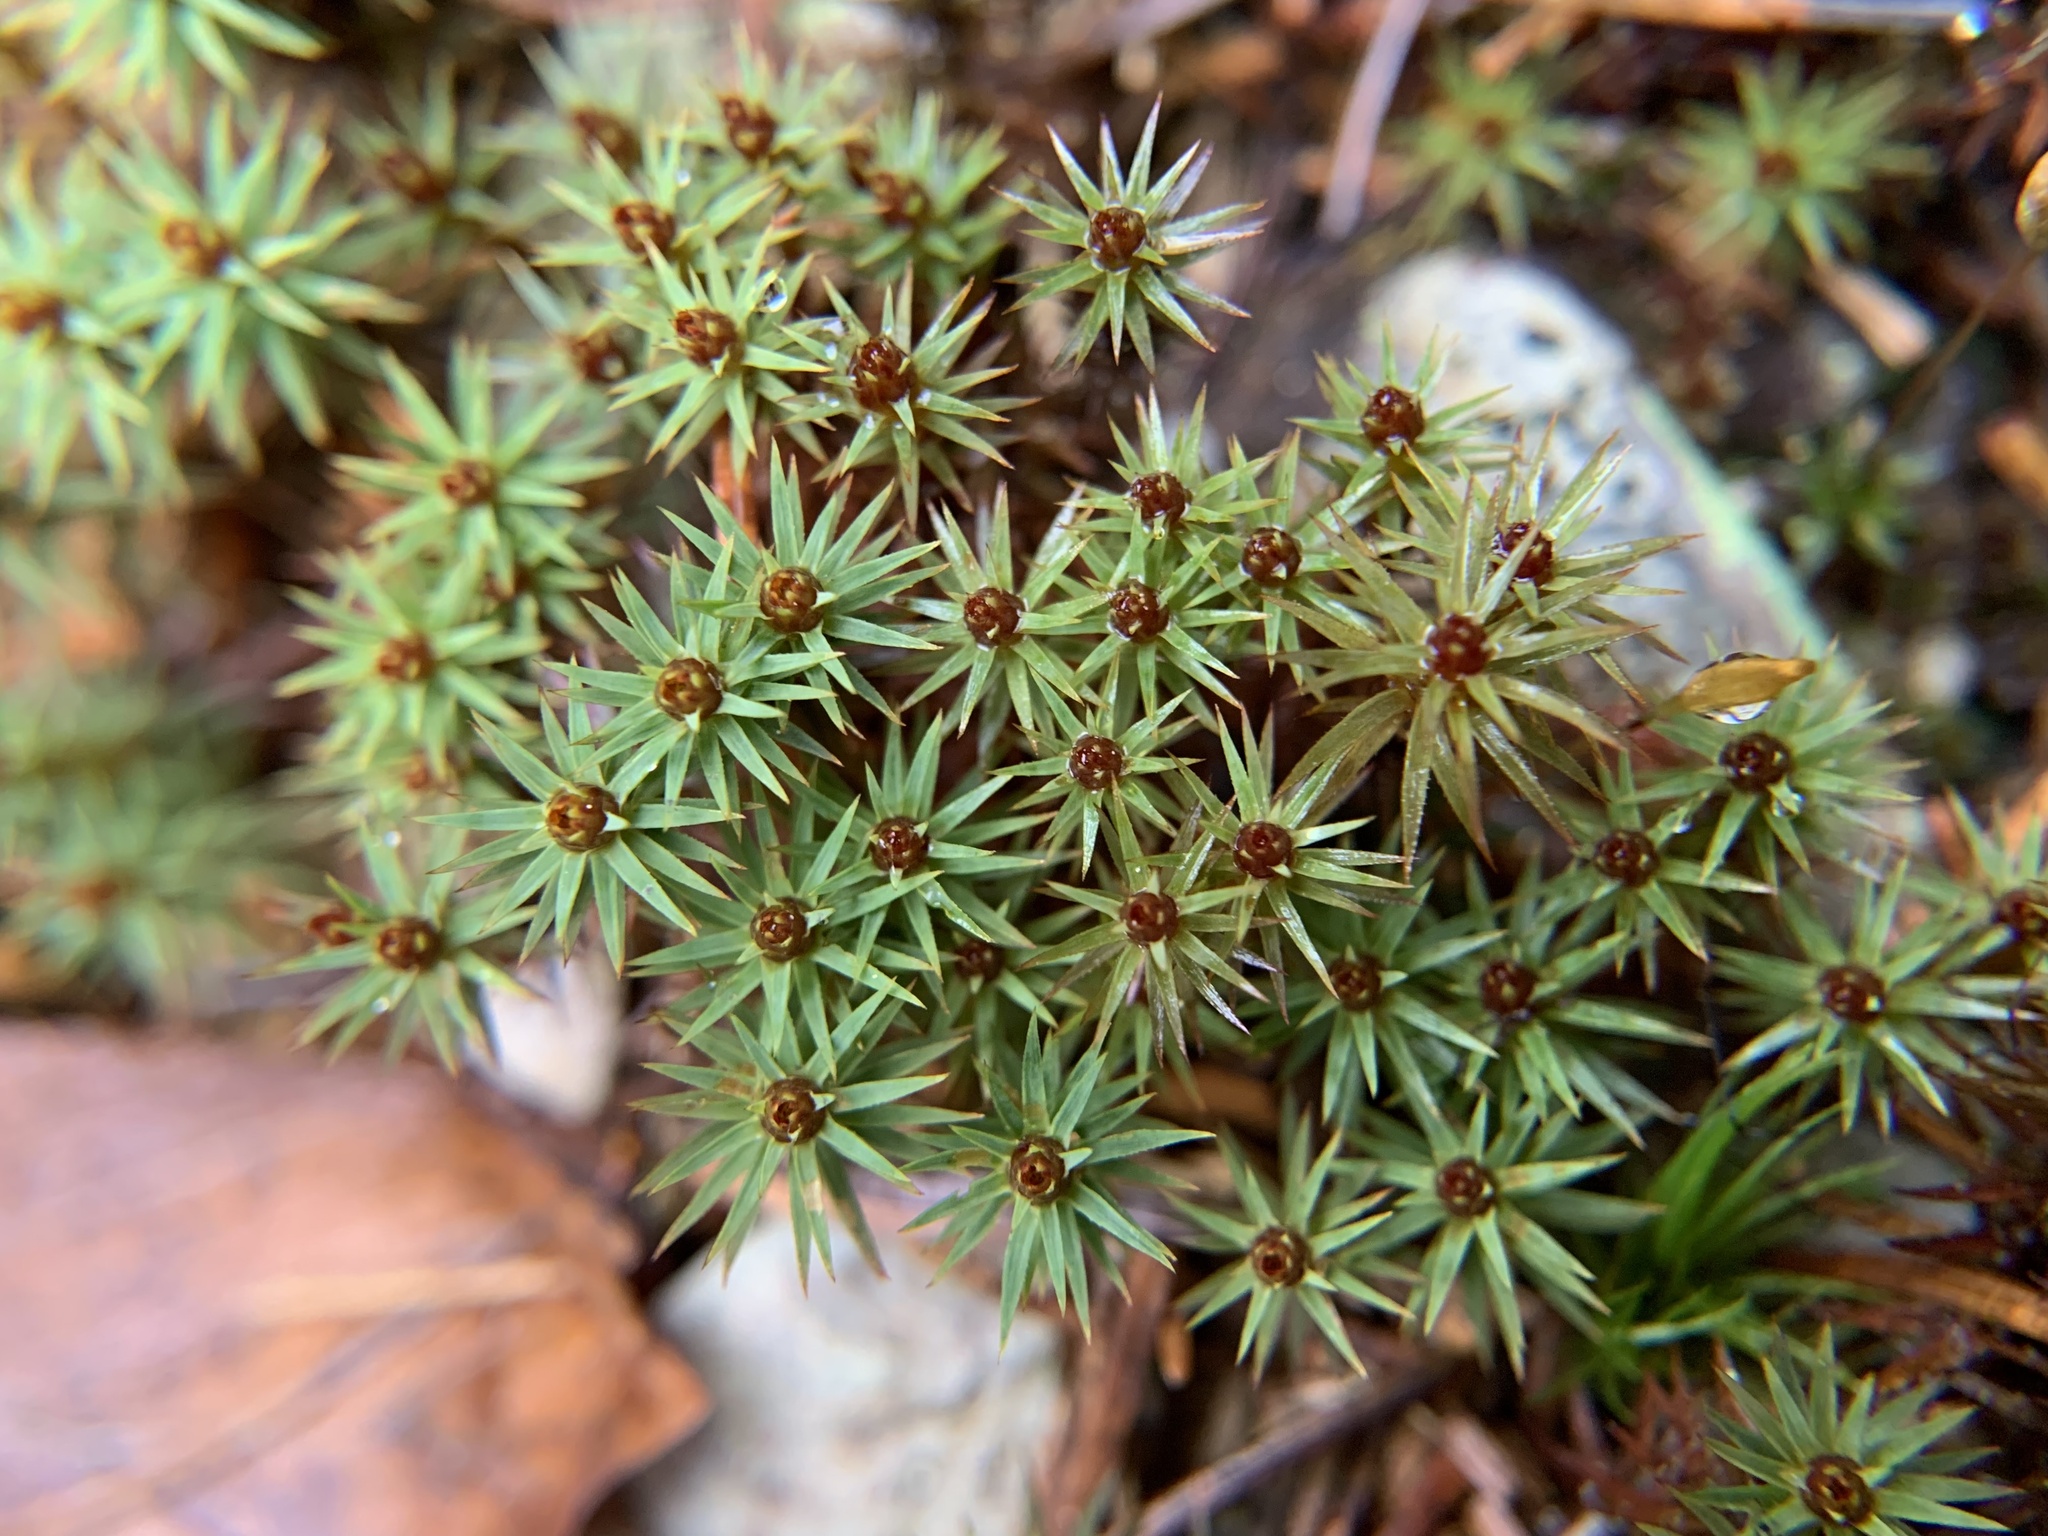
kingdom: Plantae
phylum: Bryophyta
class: Polytrichopsida
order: Polytrichales
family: Polytrichaceae
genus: Pogonatum
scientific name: Pogonatum urnigerum
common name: Urn hair moss
